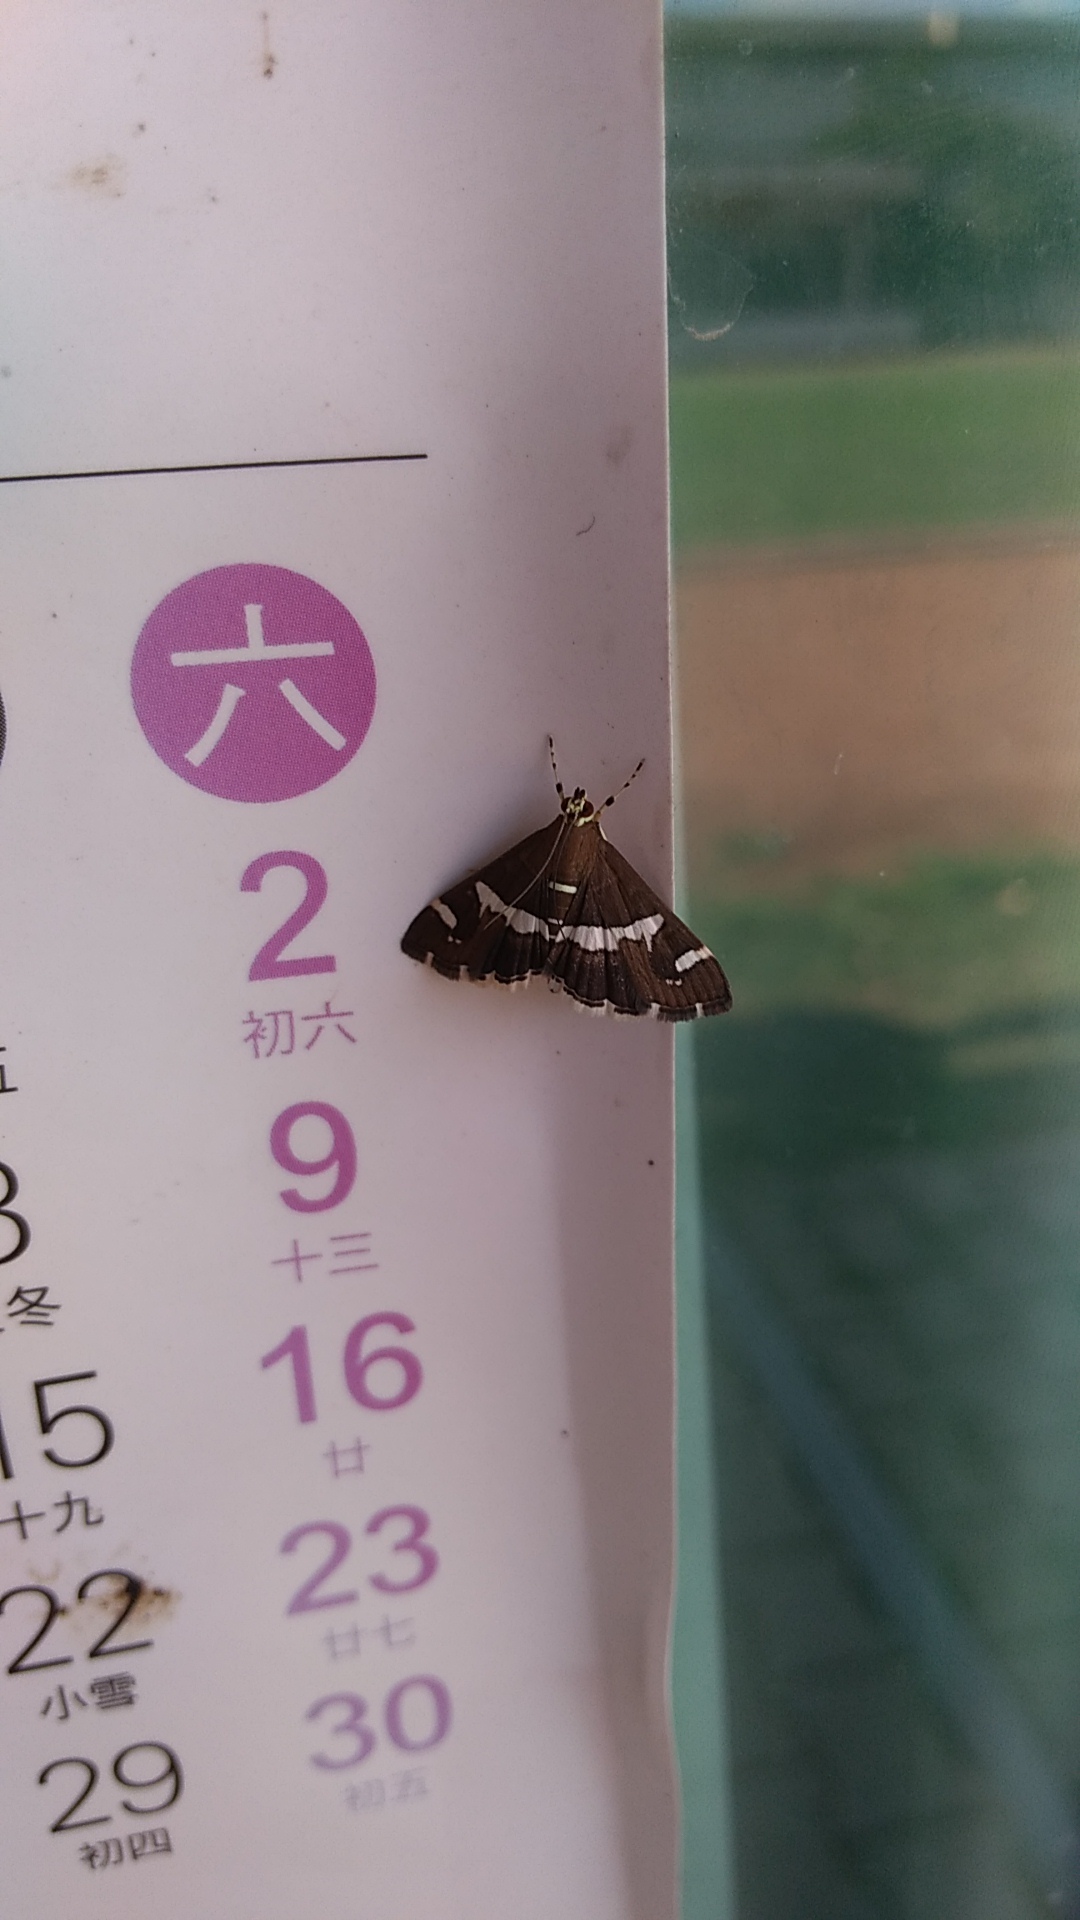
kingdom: Animalia
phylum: Arthropoda
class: Insecta
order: Lepidoptera
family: Crambidae
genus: Spoladea
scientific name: Spoladea recurvalis
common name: Beet webworm moth
